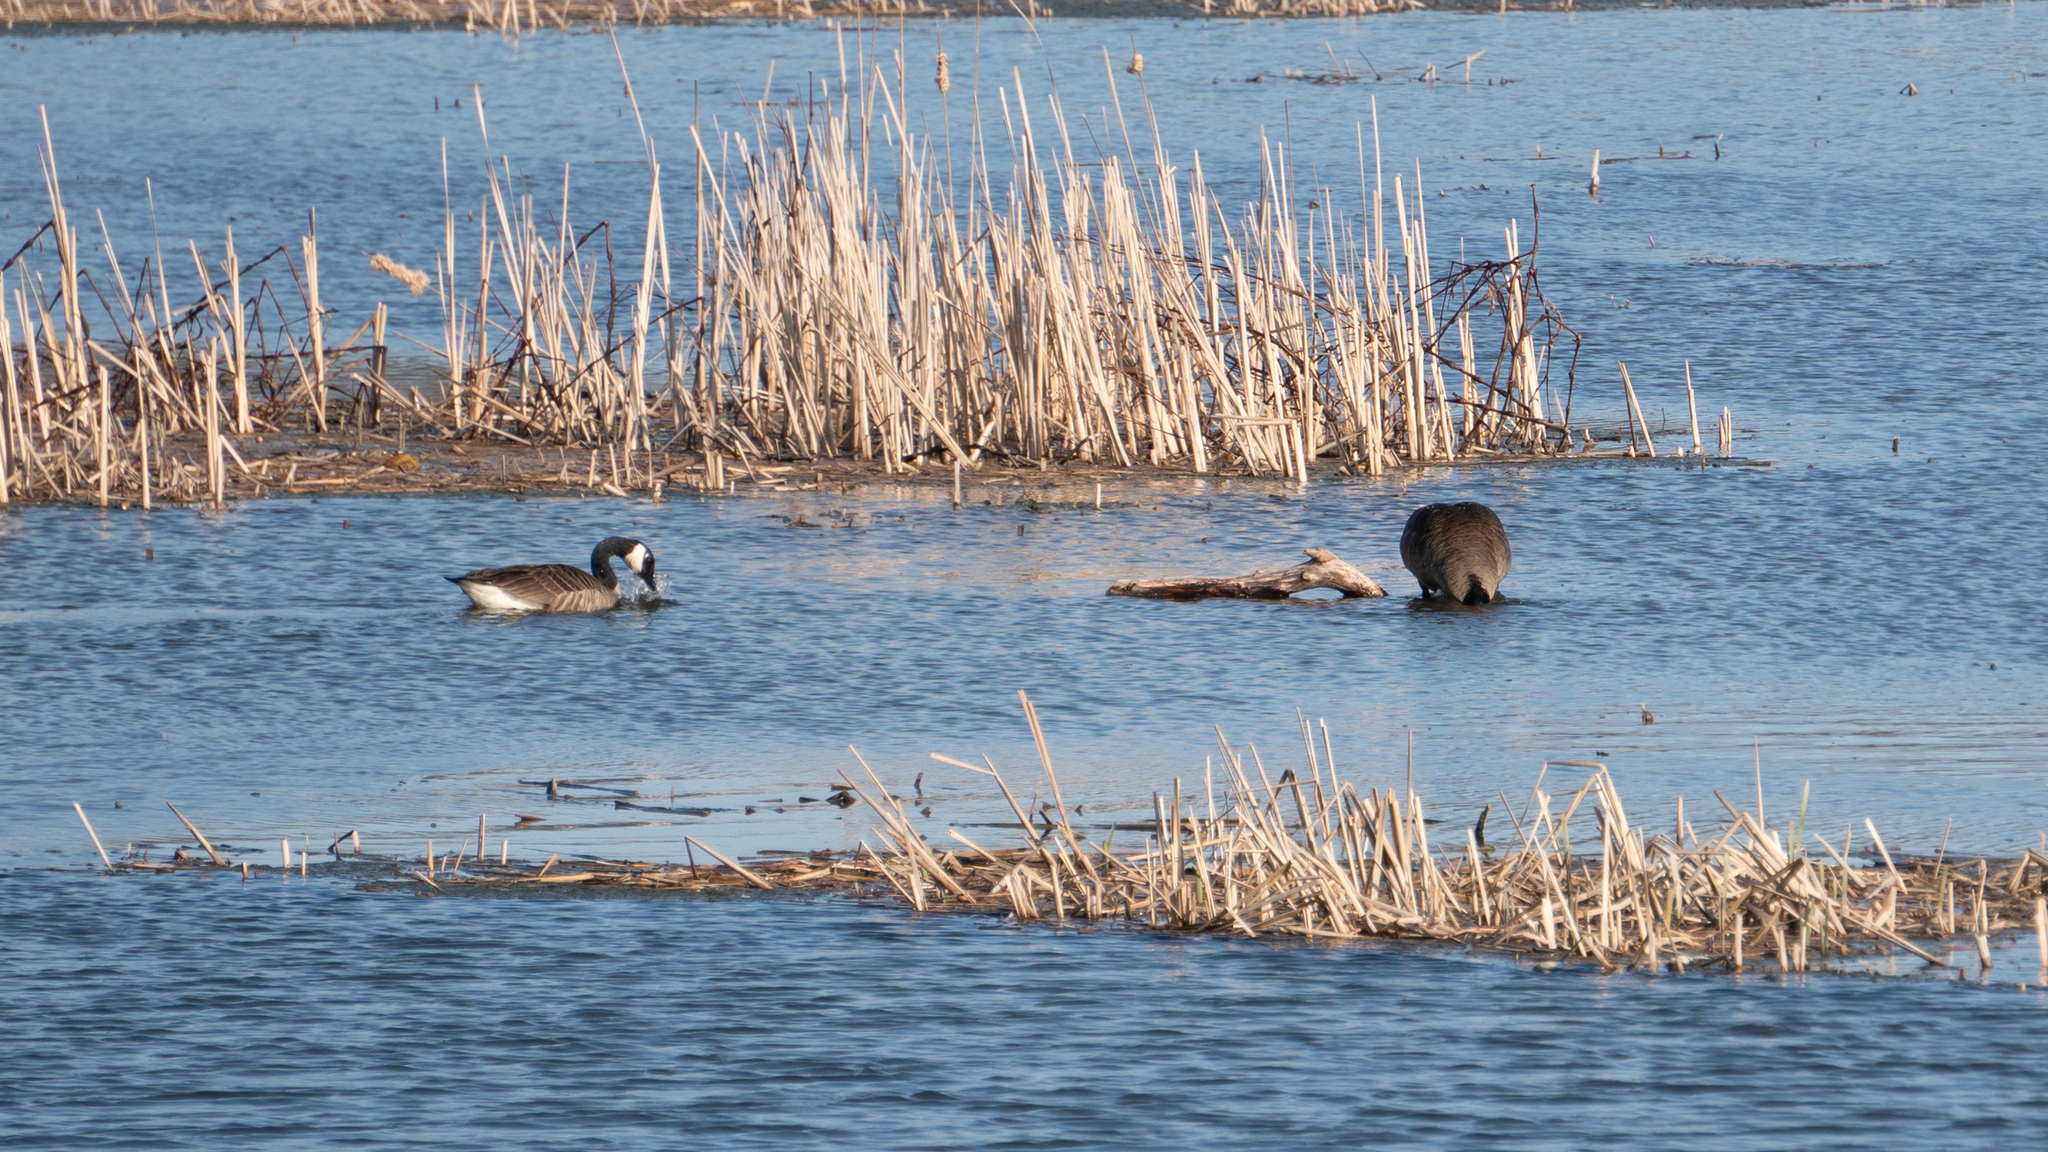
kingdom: Animalia
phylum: Chordata
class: Aves
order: Anseriformes
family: Anatidae
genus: Branta
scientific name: Branta canadensis
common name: Canada goose
